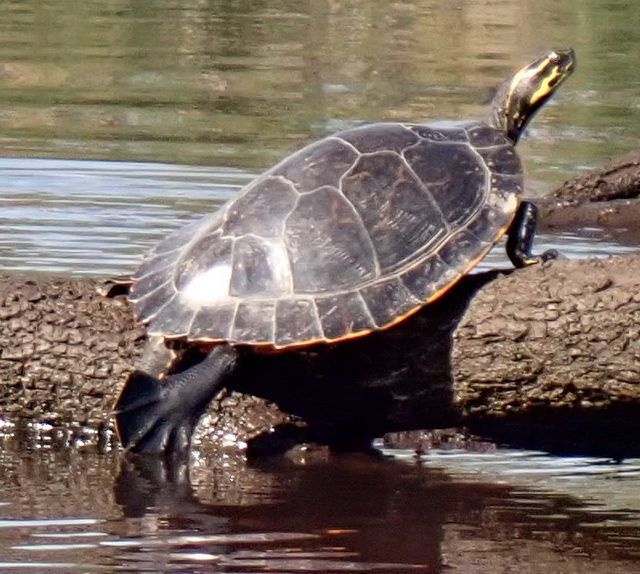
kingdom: Animalia
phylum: Chordata
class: Testudines
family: Emydidae
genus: Pseudemys
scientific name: Pseudemys concinna
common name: Eastern river cooter
